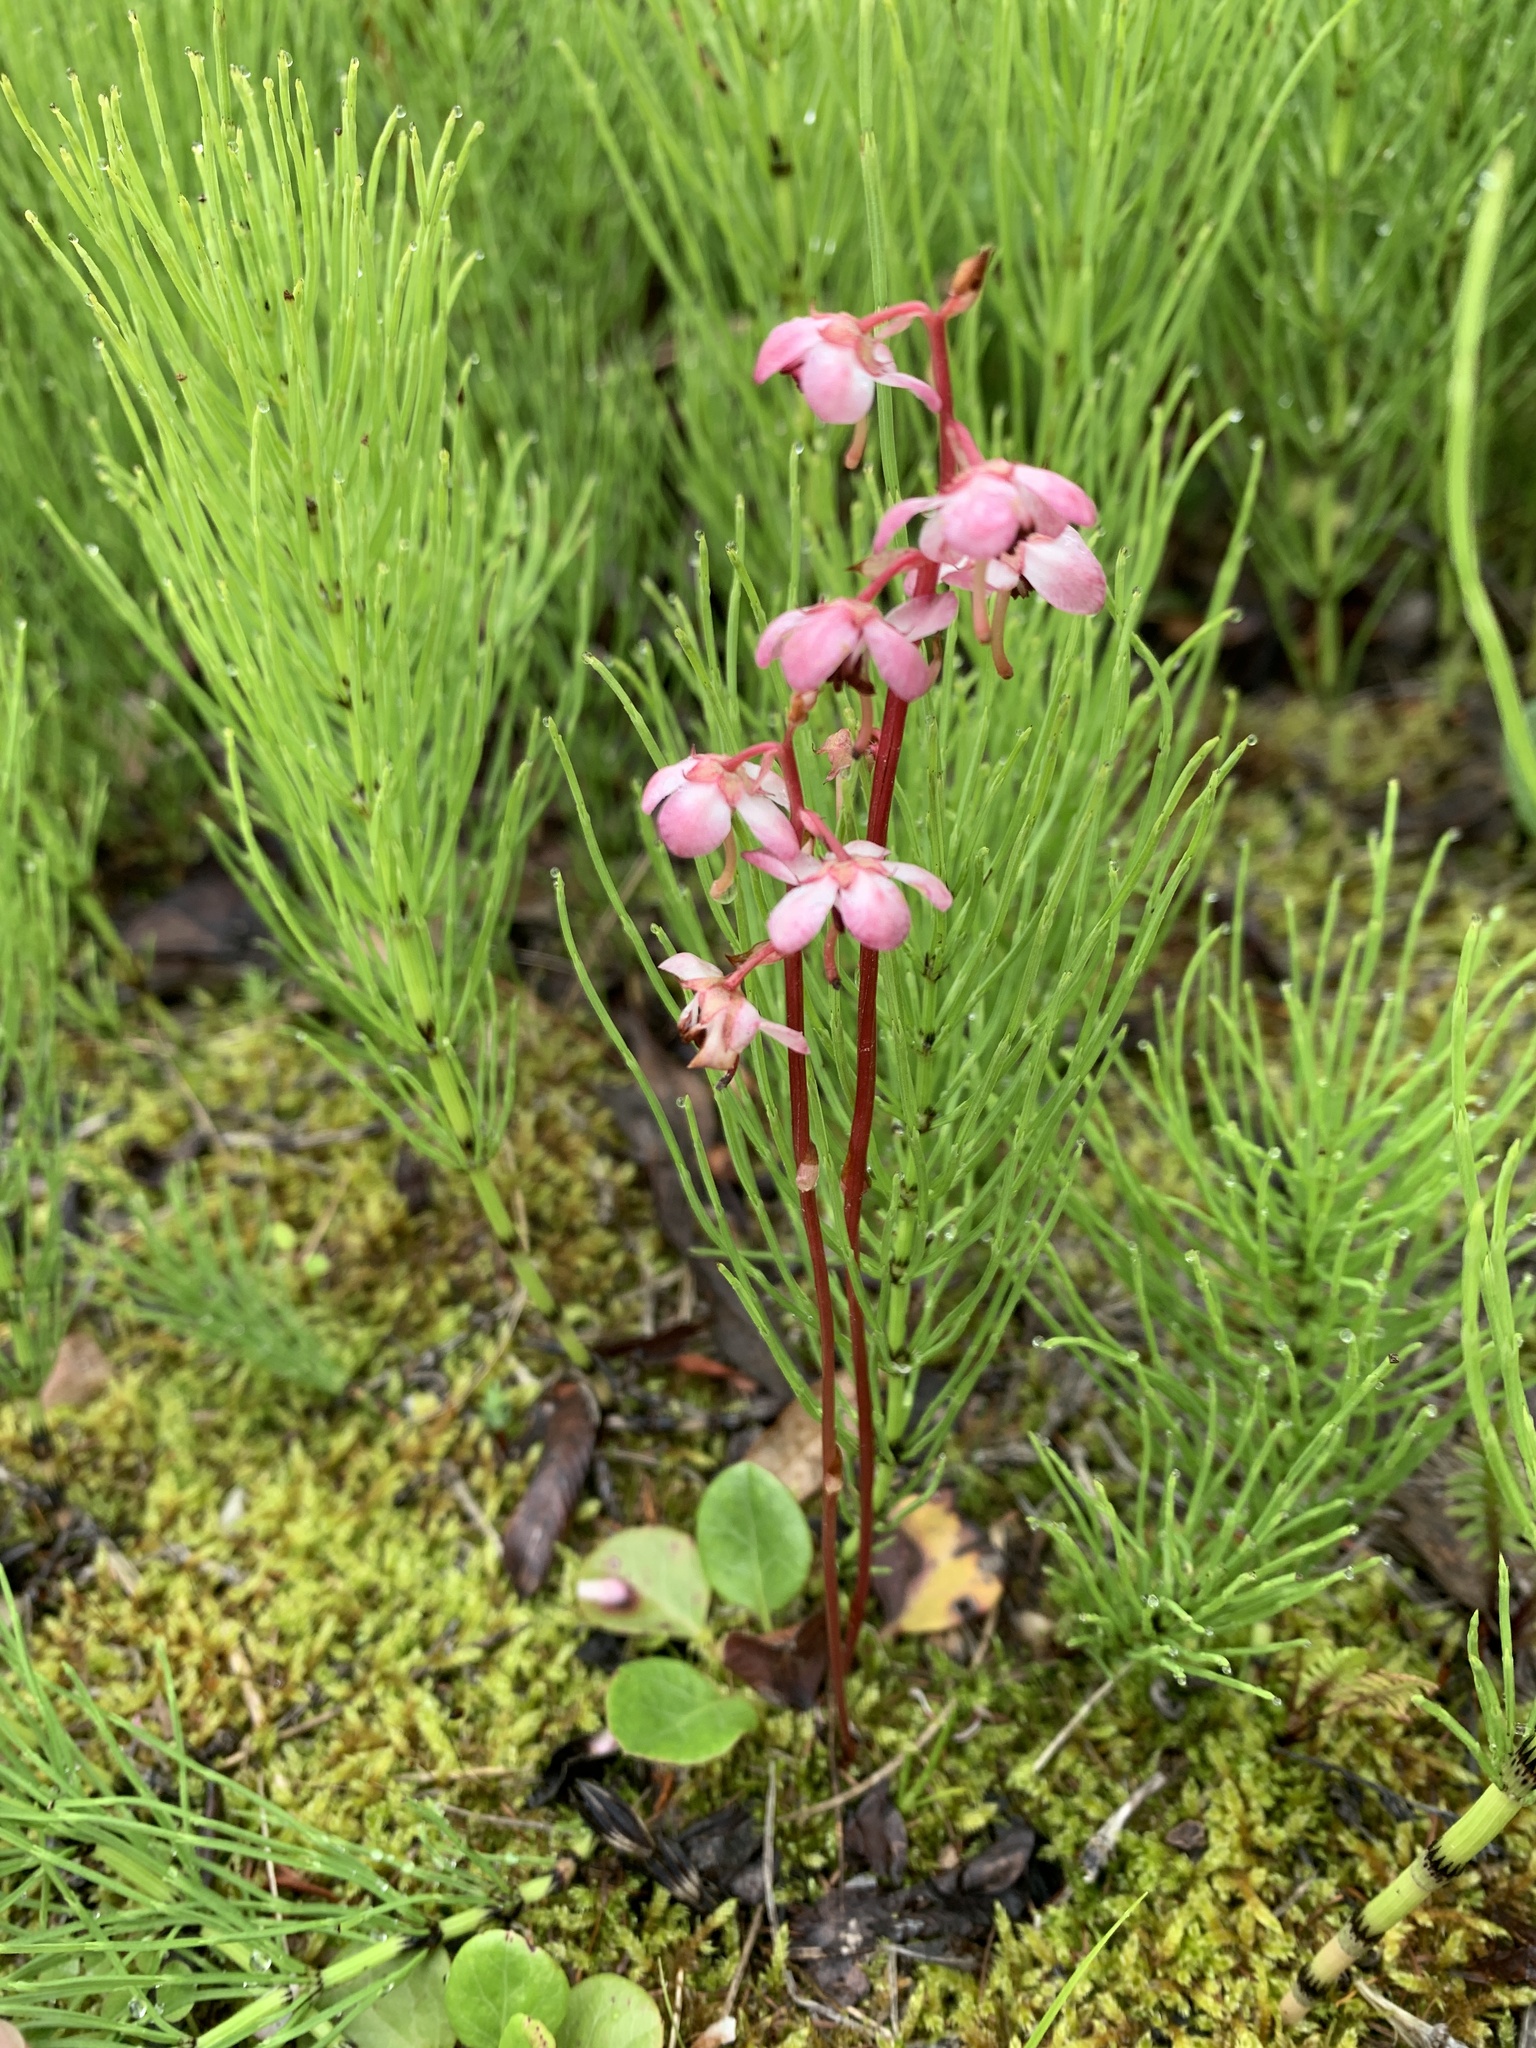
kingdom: Plantae
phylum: Tracheophyta
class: Magnoliopsida
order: Ericales
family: Ericaceae
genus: Pyrola
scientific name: Pyrola asarifolia
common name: Bog wintergreen
